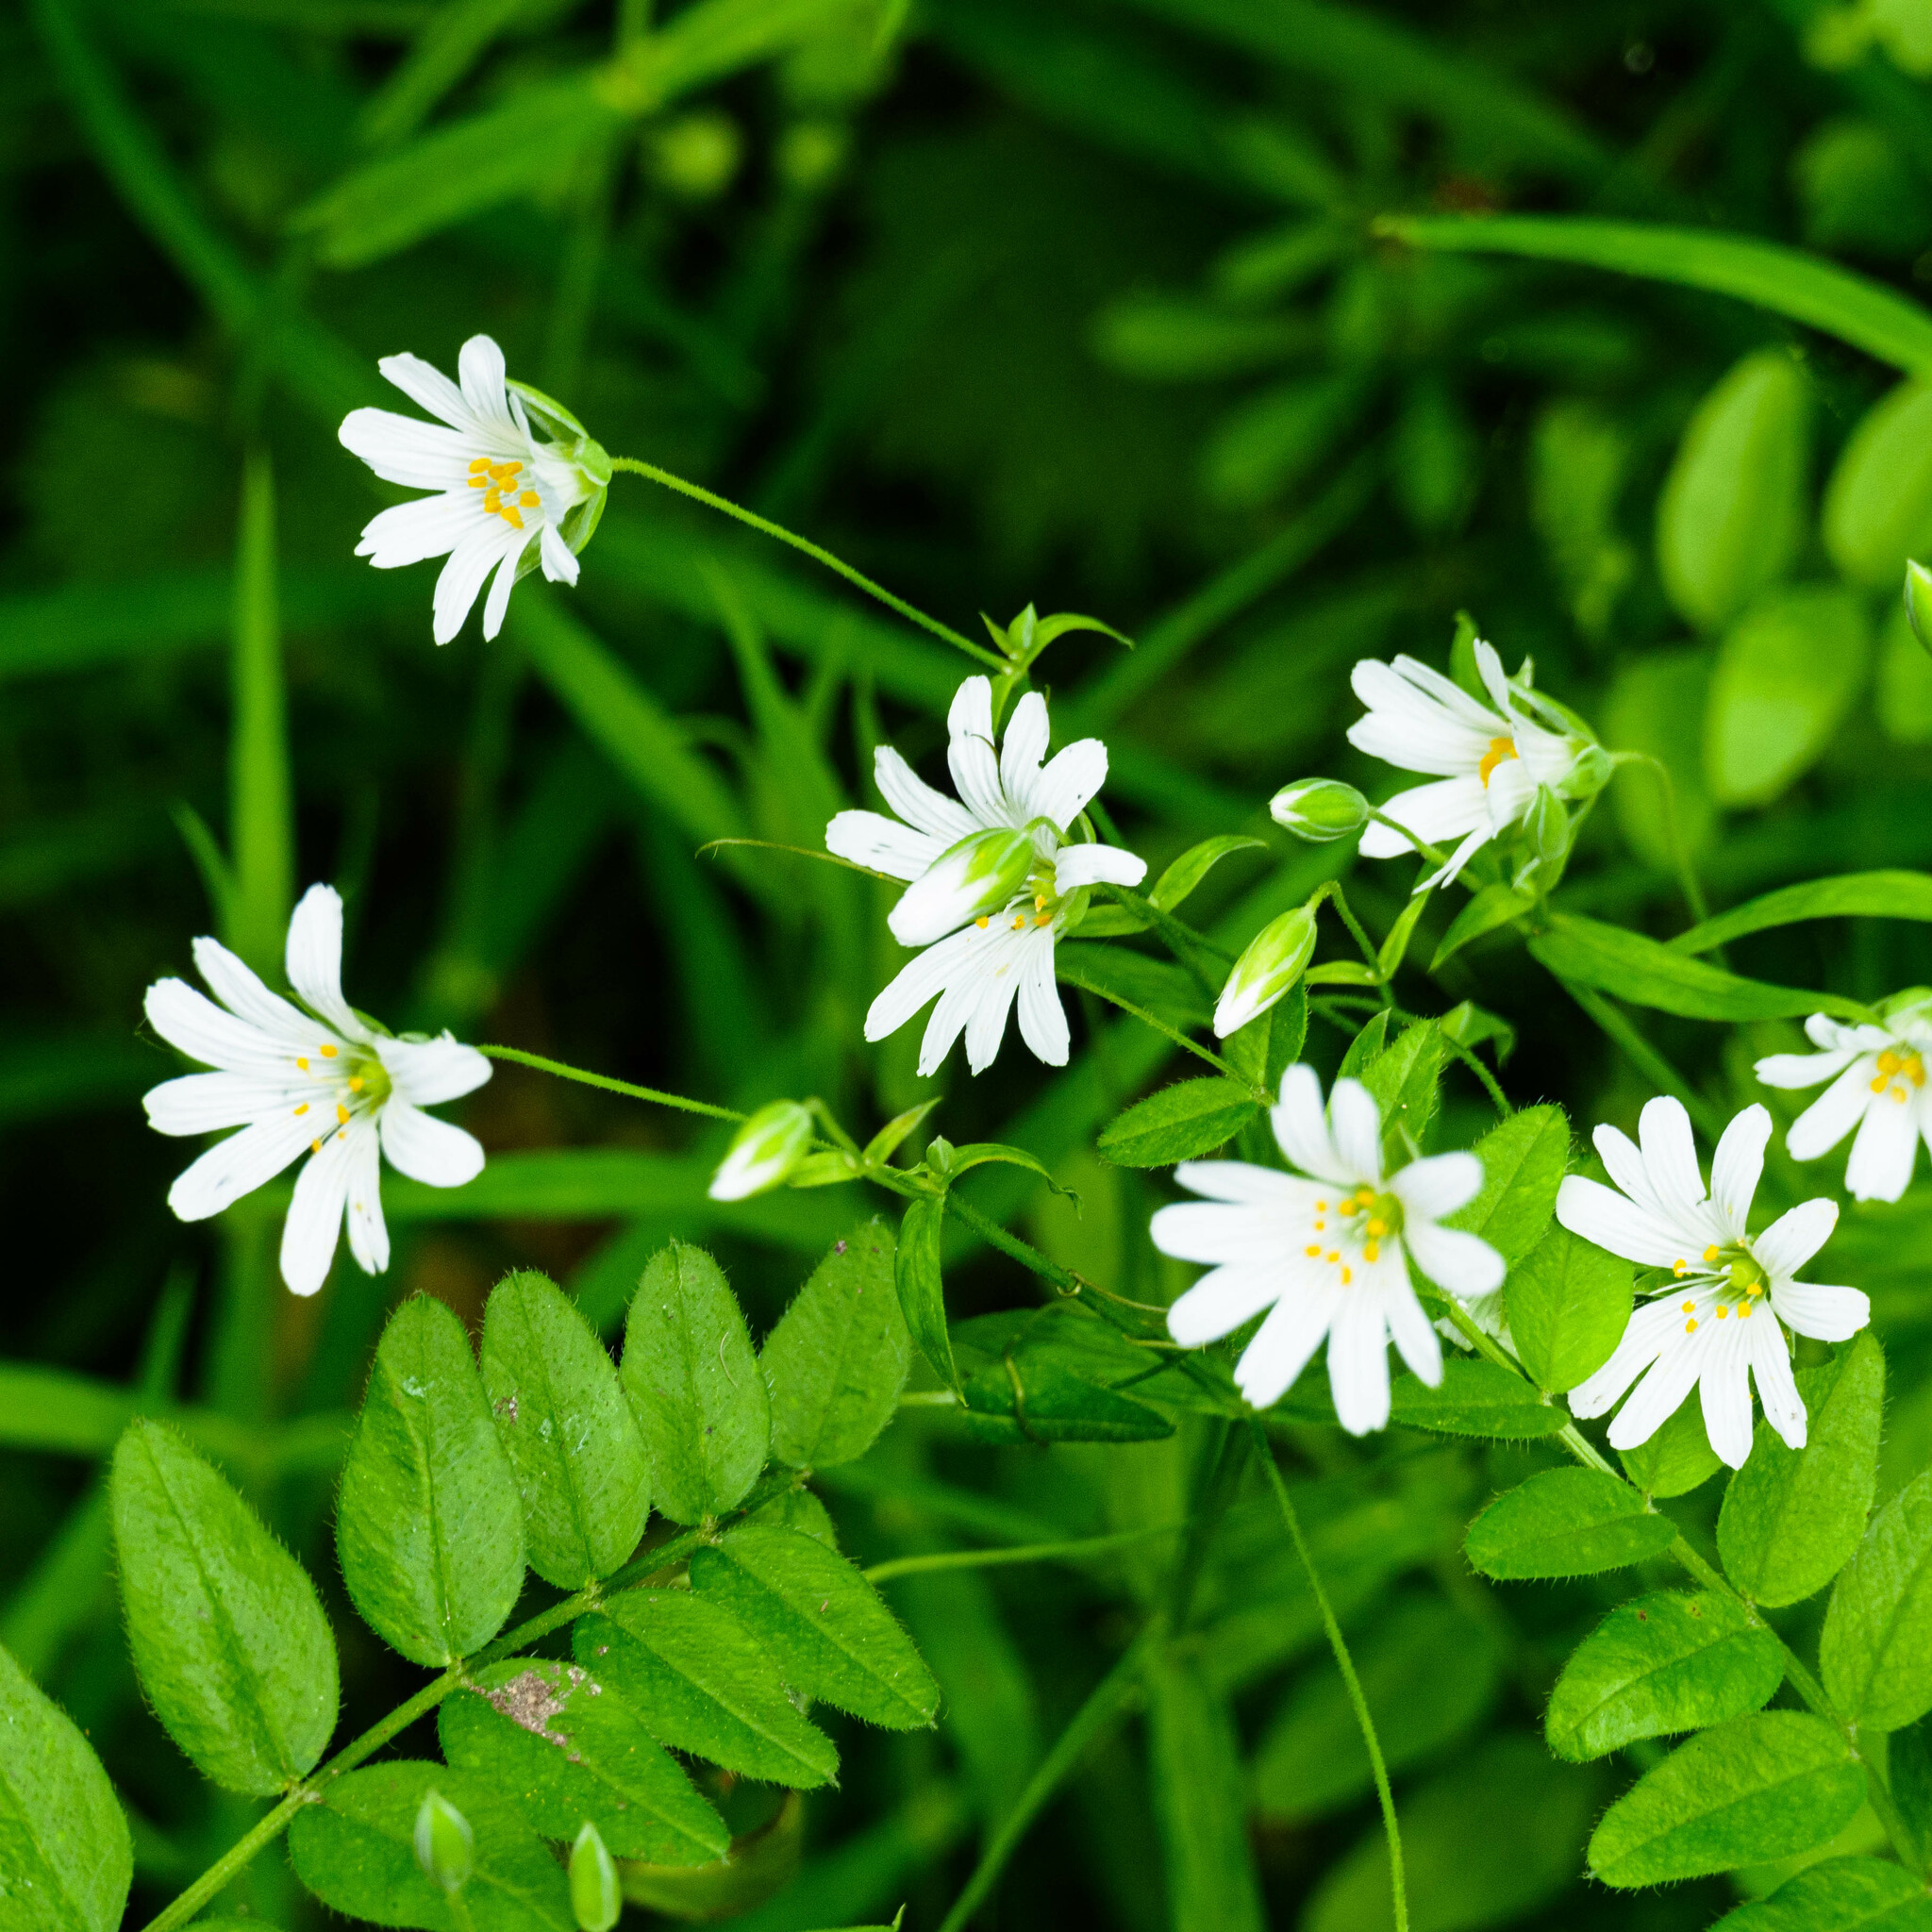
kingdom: Plantae
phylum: Tracheophyta
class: Magnoliopsida
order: Caryophyllales
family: Caryophyllaceae
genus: Rabelera
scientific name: Rabelera holostea
